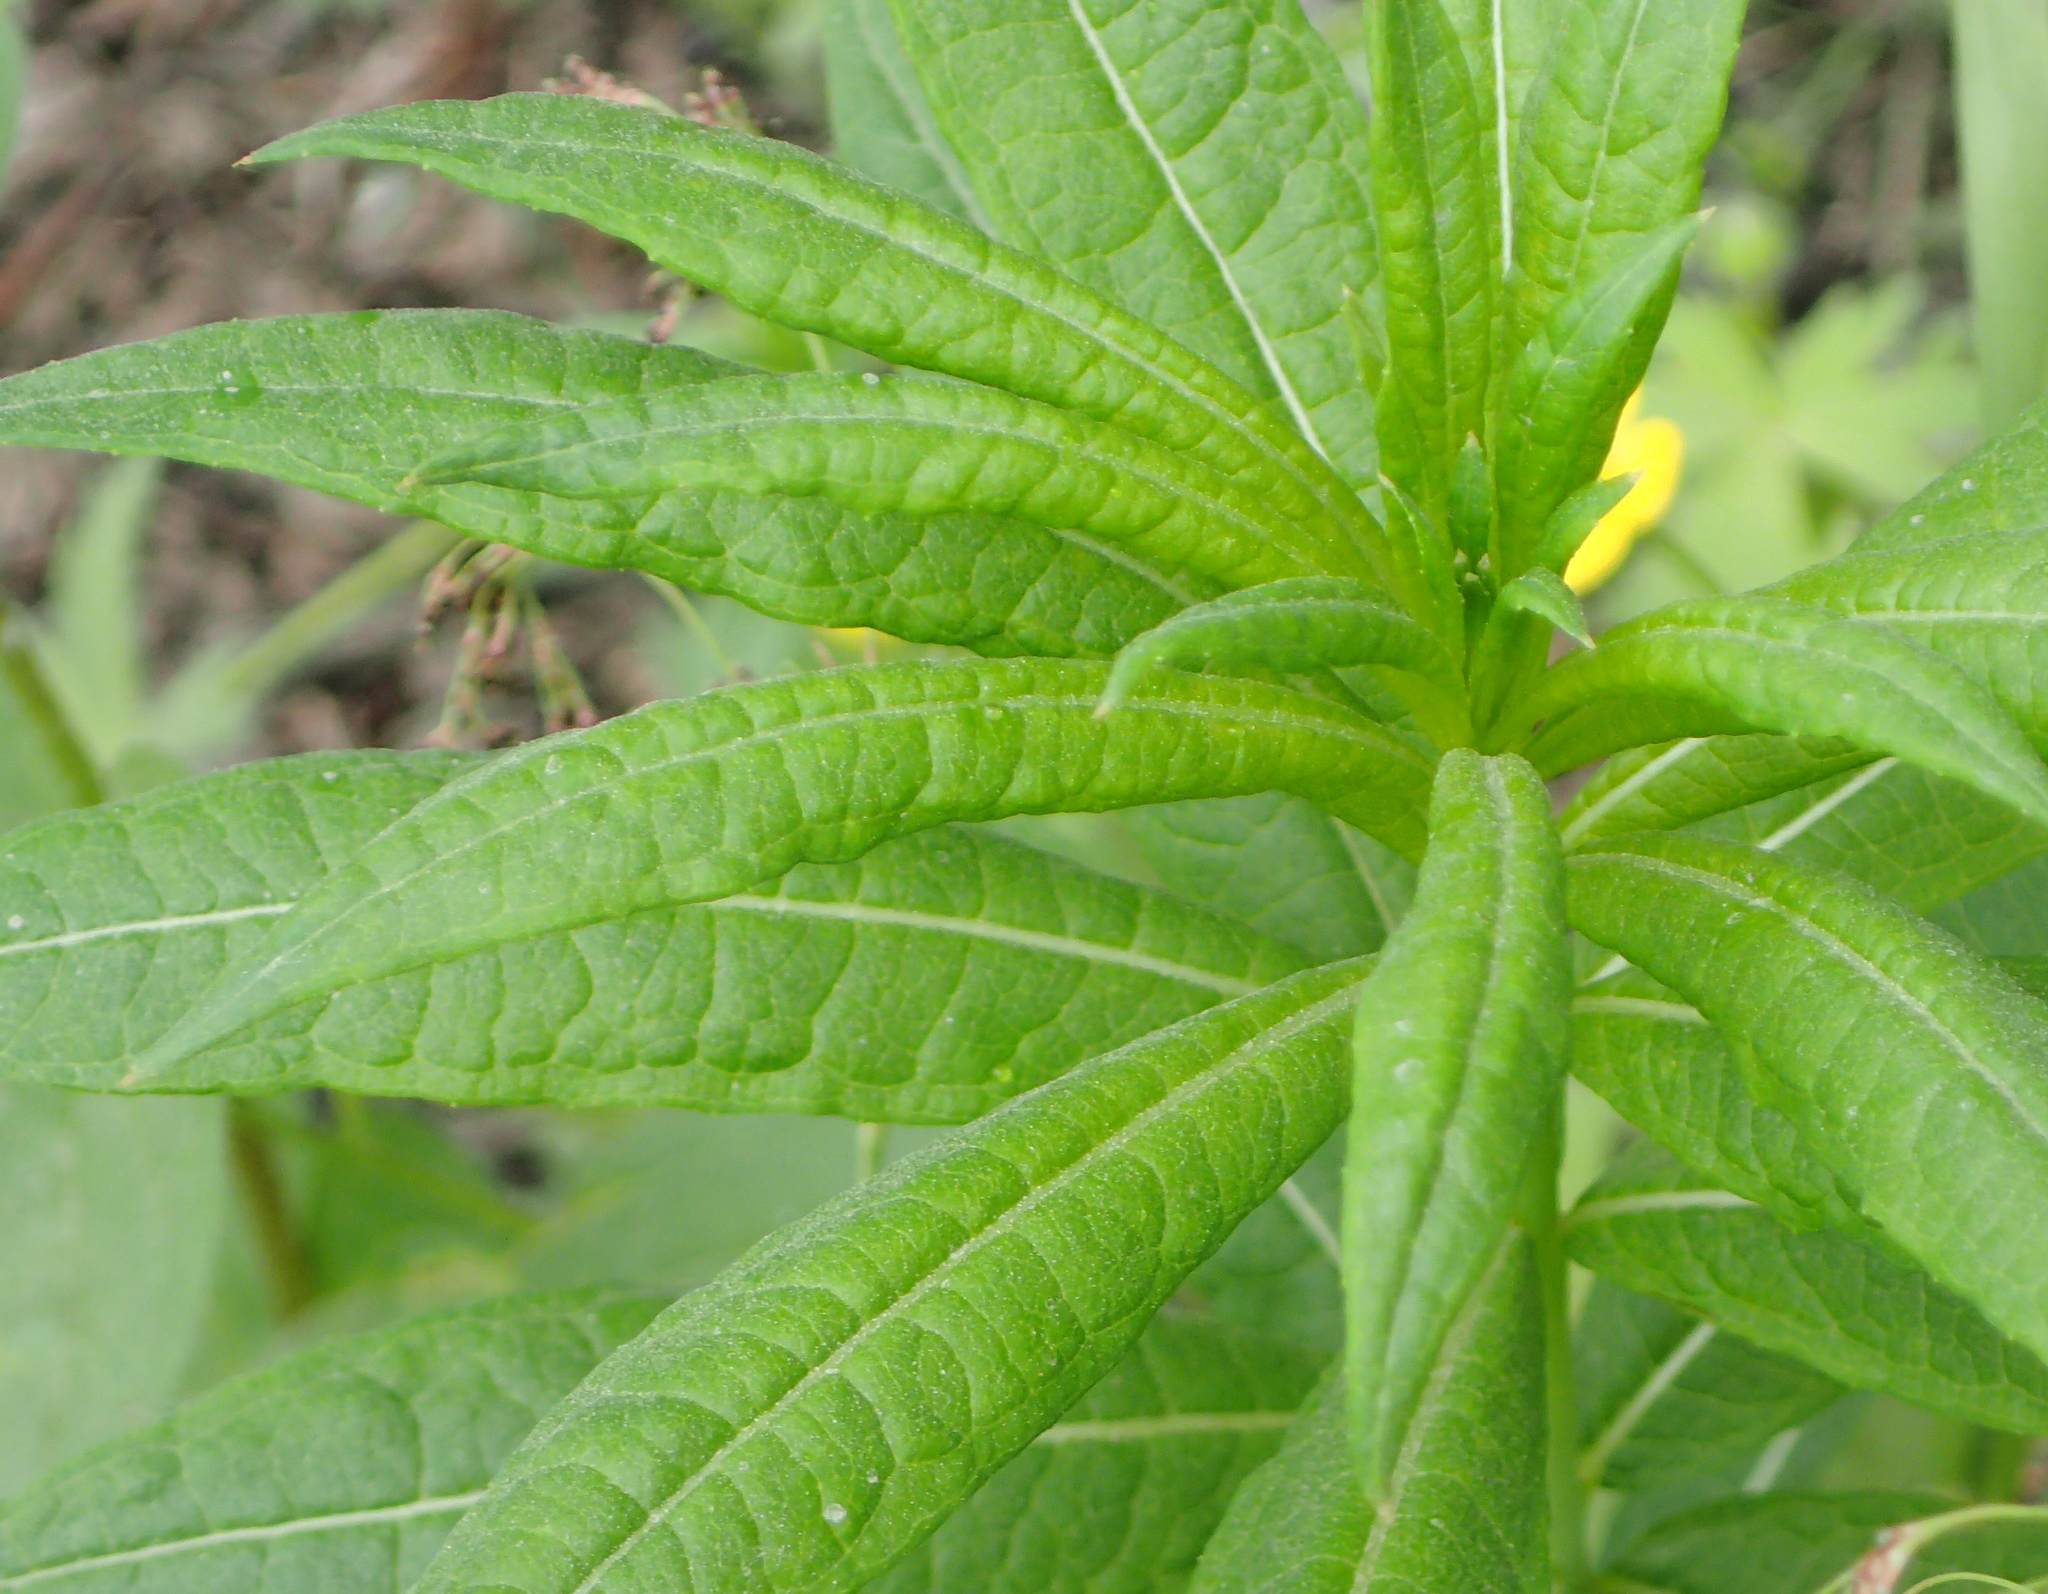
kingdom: Plantae
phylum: Tracheophyta
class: Magnoliopsida
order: Myrtales
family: Onagraceae
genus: Chamaenerion
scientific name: Chamaenerion angustifolium
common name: Fireweed
